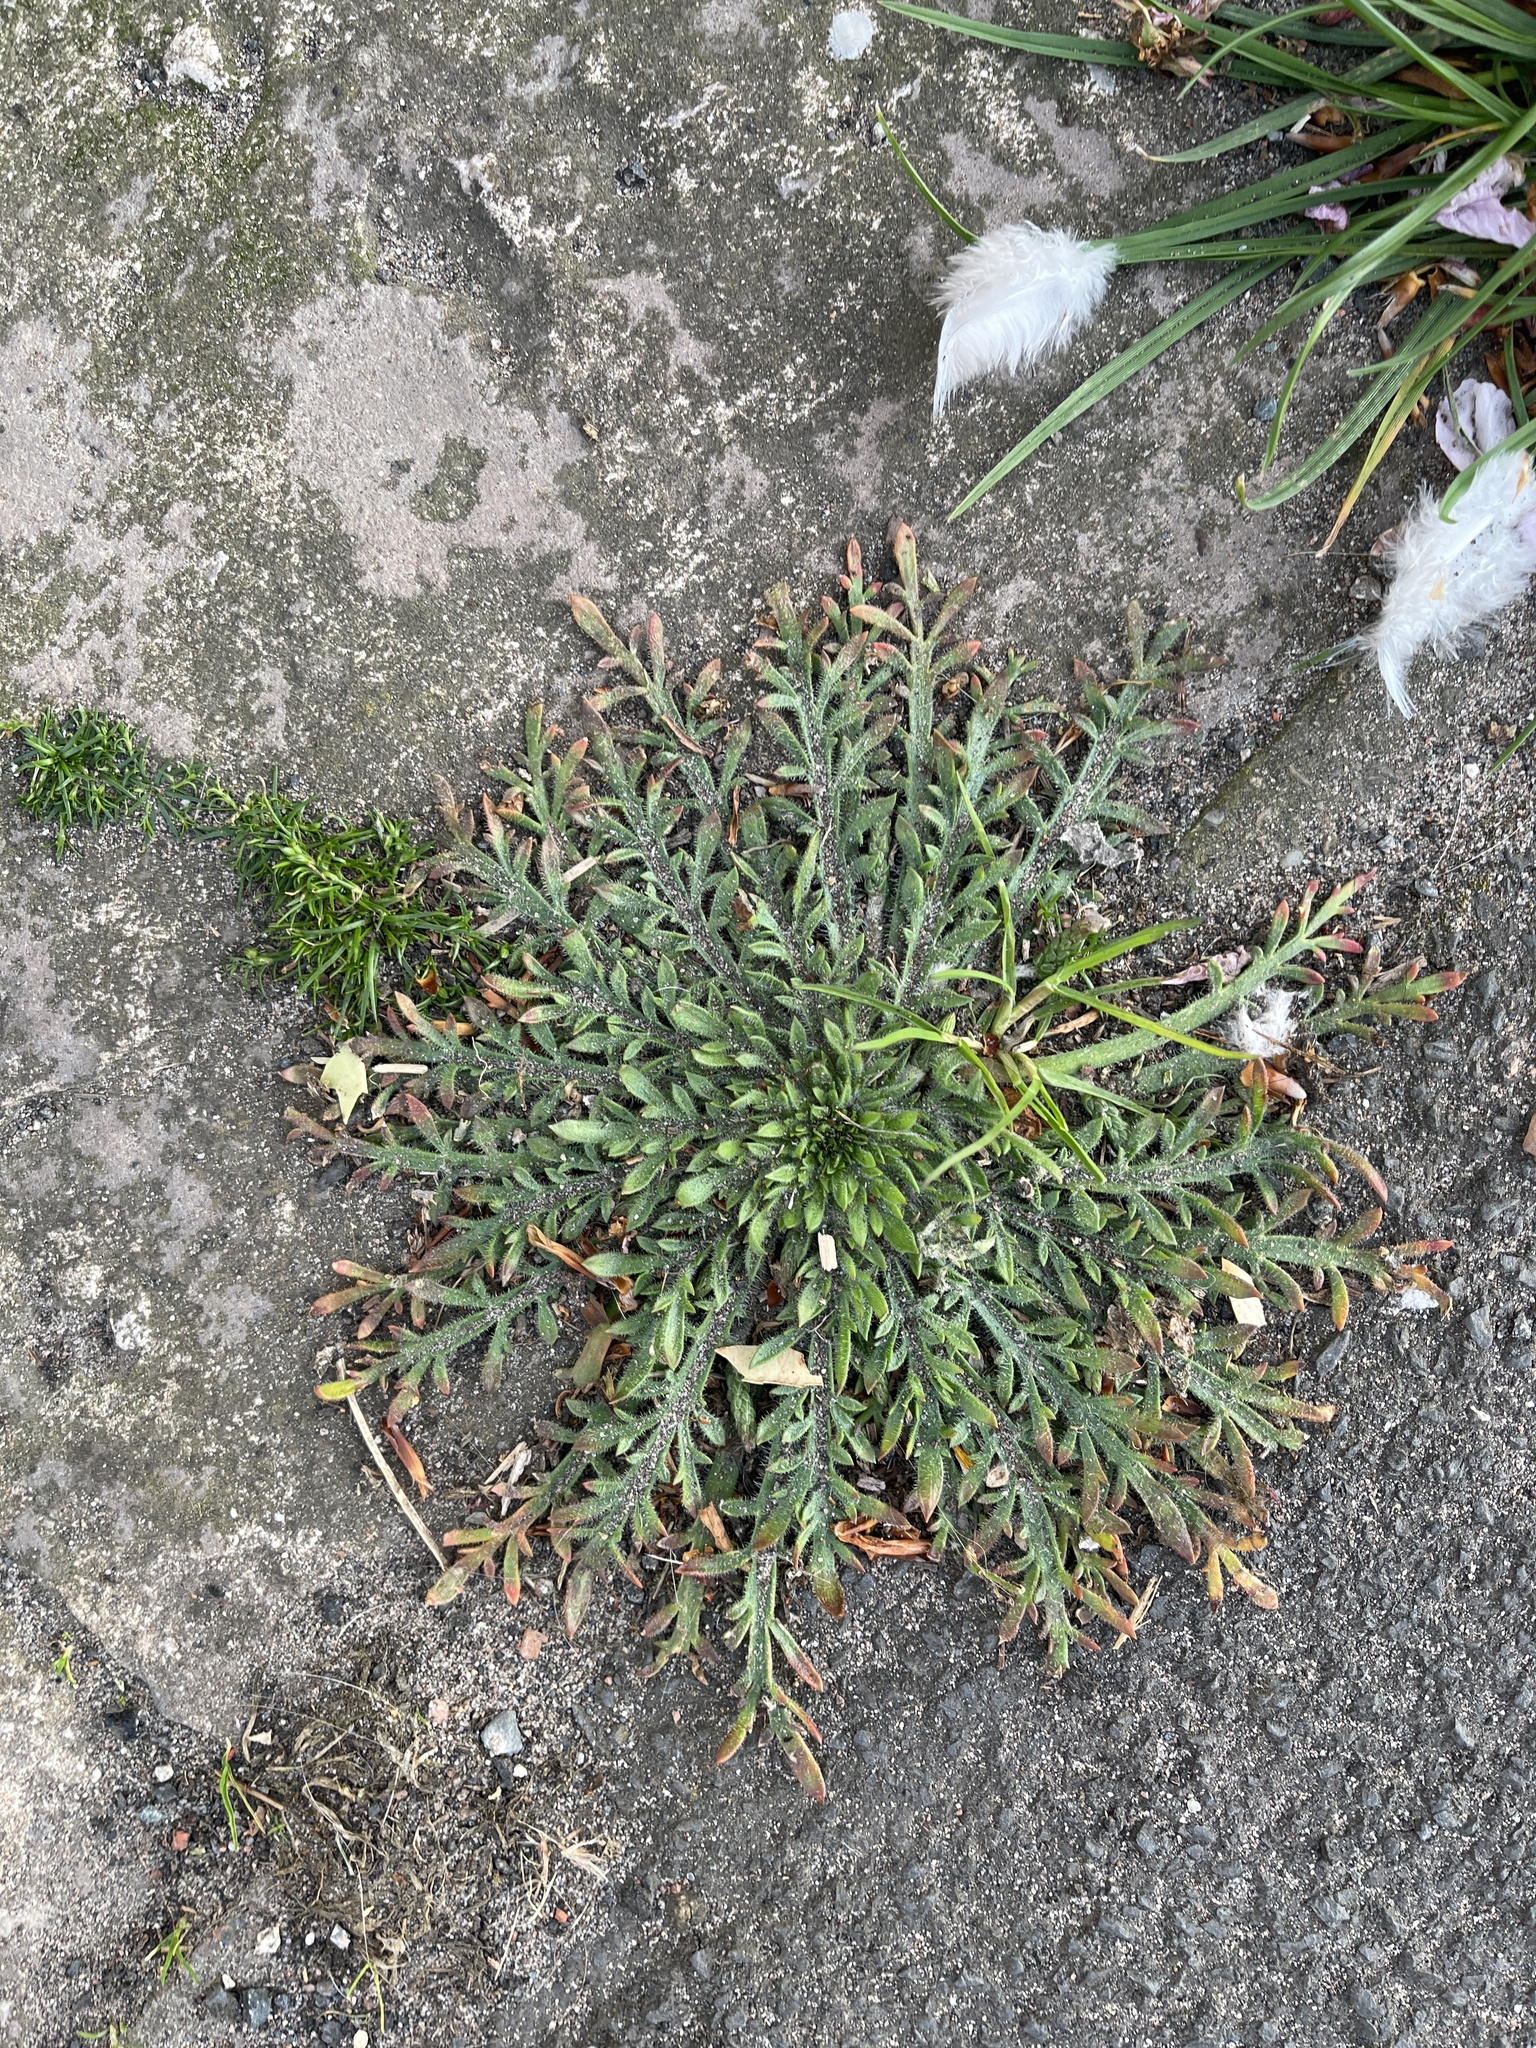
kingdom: Plantae
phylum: Tracheophyta
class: Magnoliopsida
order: Lamiales
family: Plantaginaceae
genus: Plantago
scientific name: Plantago coronopus
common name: Buck's-horn plantain
